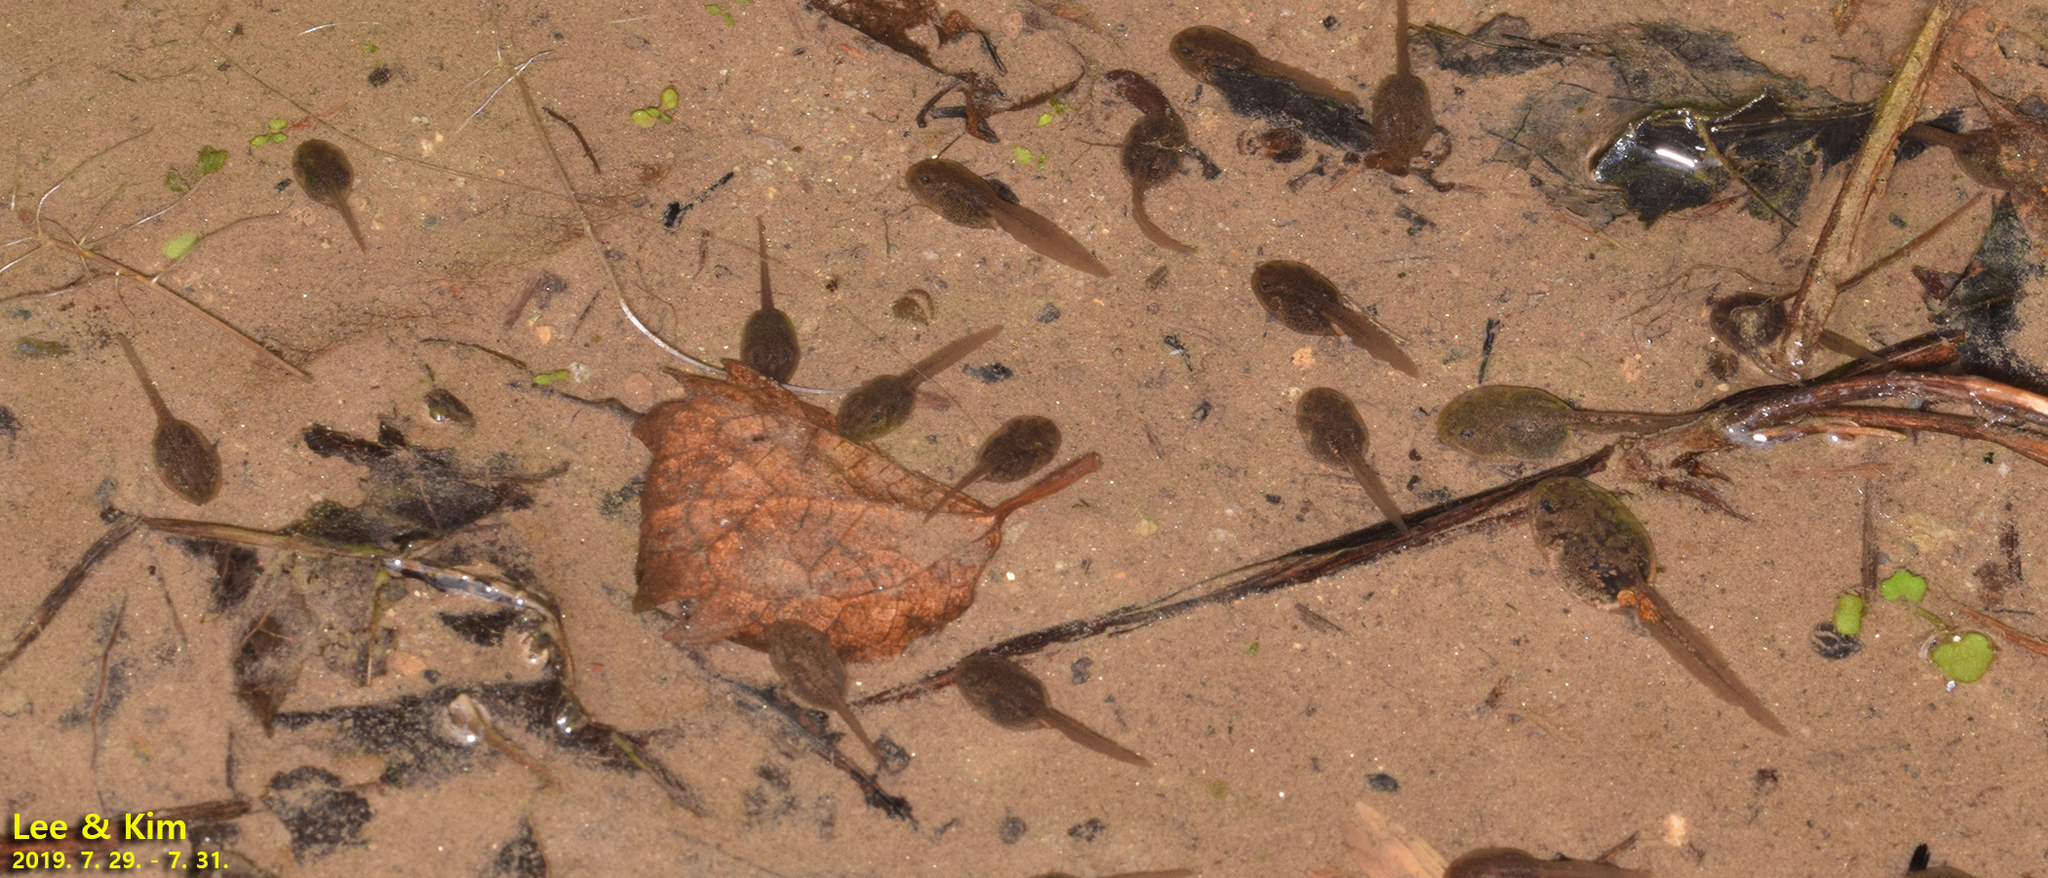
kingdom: Animalia
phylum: Chordata
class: Amphibia
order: Anura
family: Bombinatoridae
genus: Bombina
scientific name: Bombina orientalis
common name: Oriental firebelly toad
